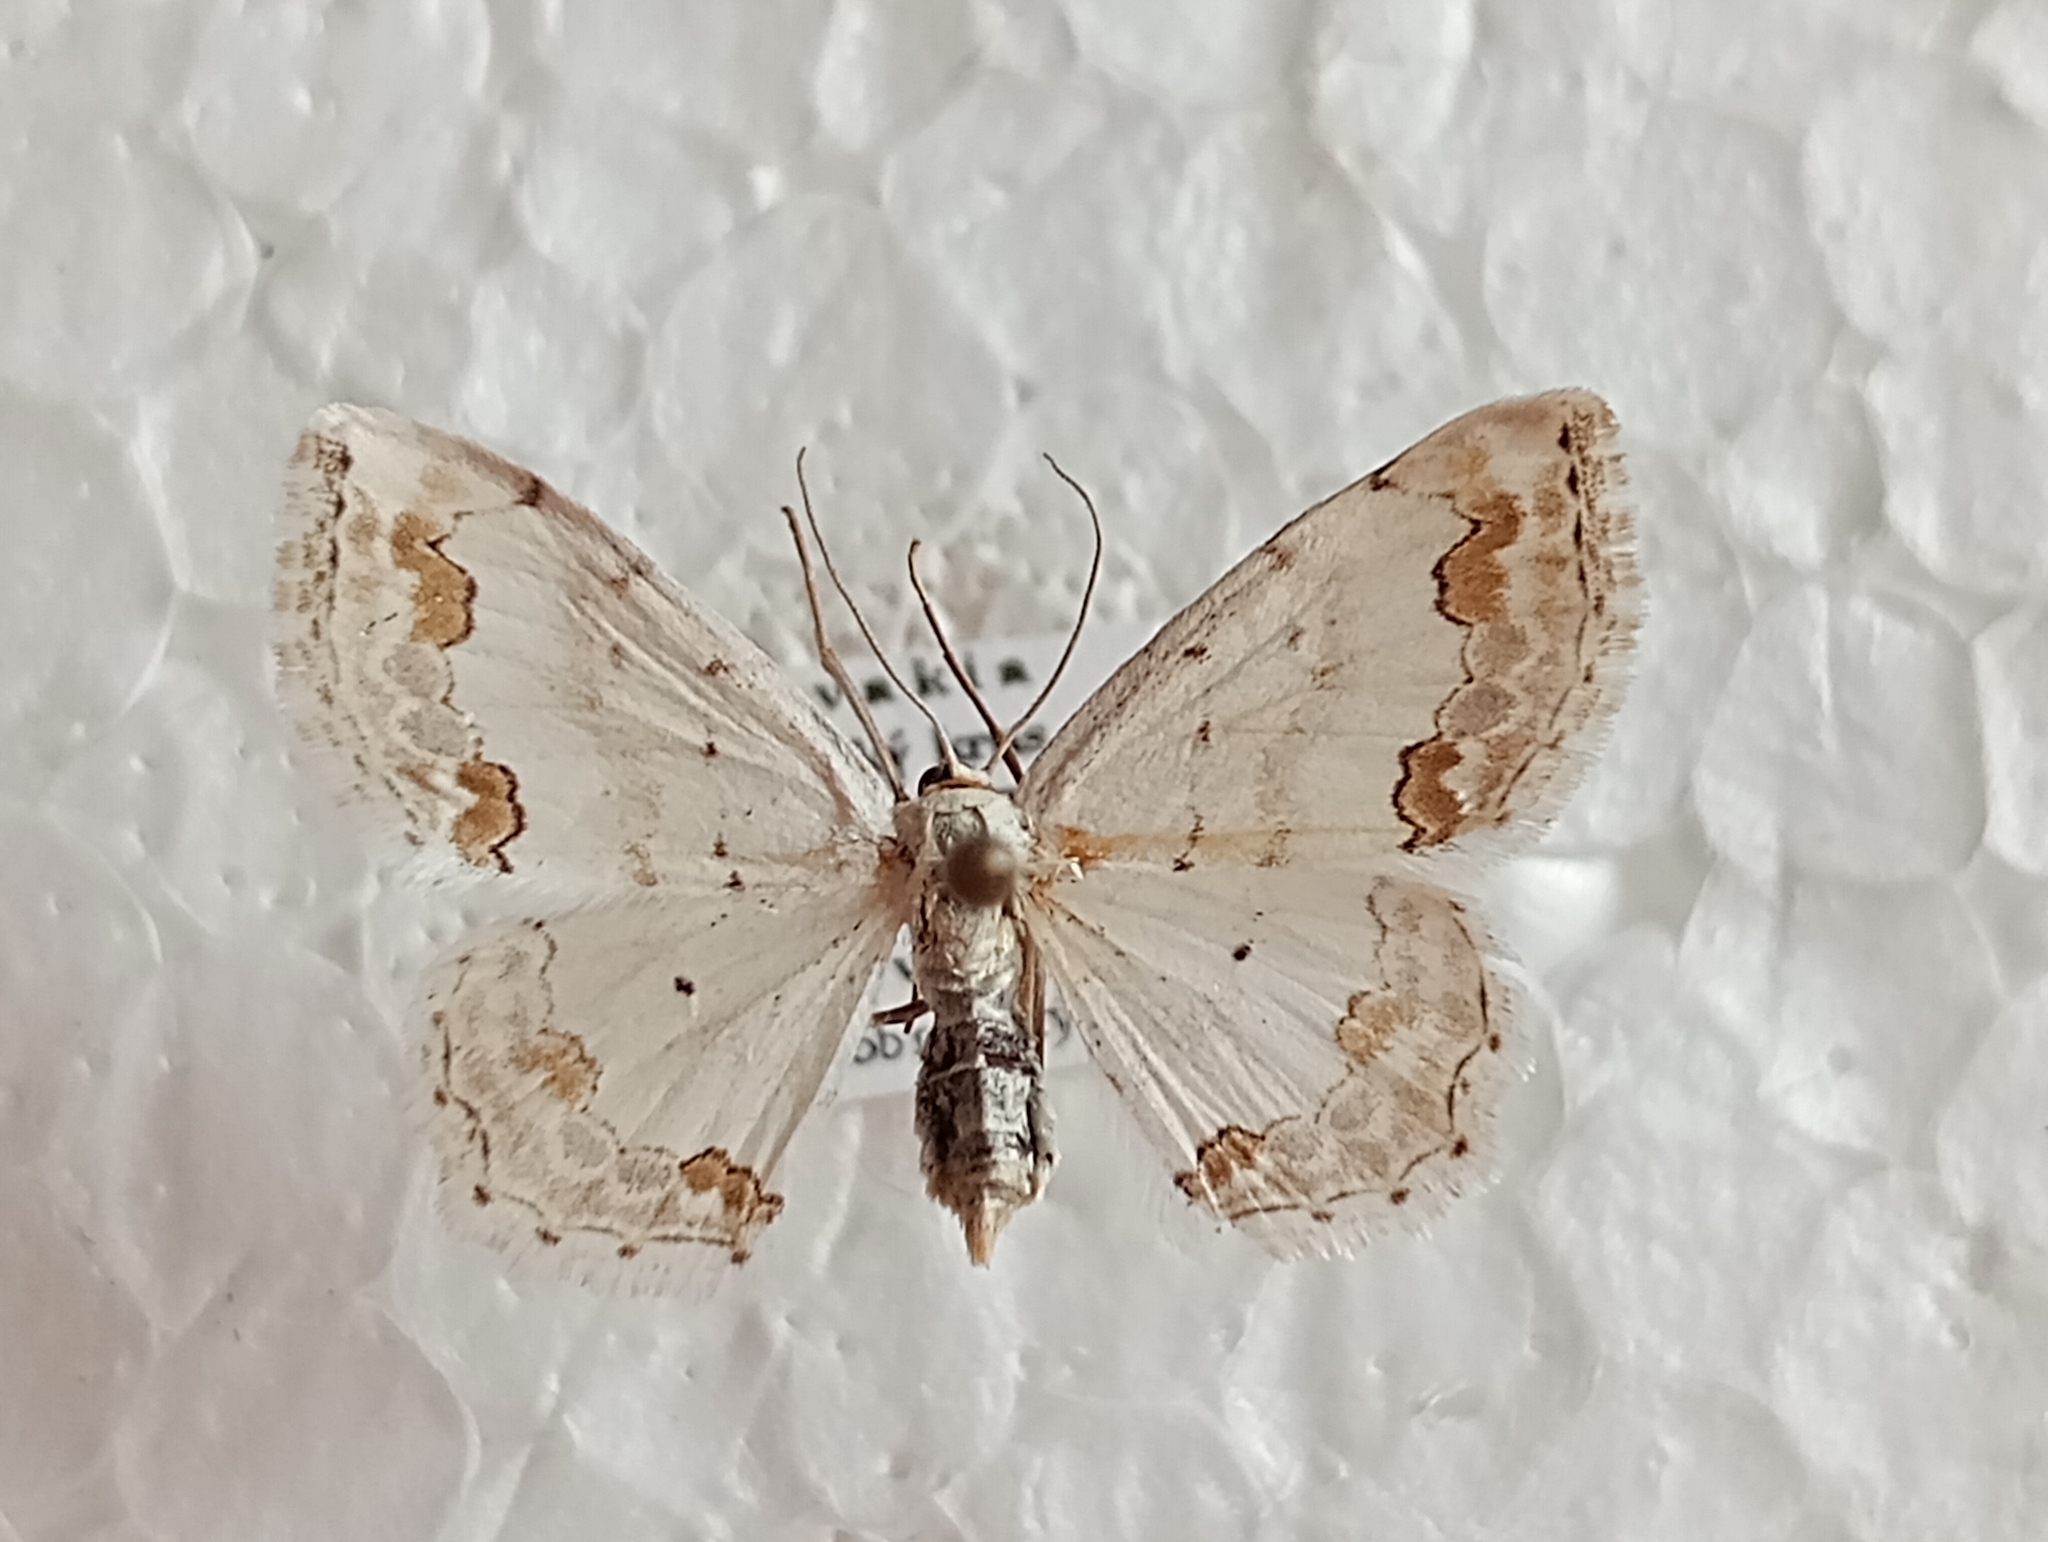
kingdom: Animalia
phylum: Arthropoda
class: Insecta
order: Lepidoptera
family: Geometridae
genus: Scopula
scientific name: Scopula ornata
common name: Lace border
